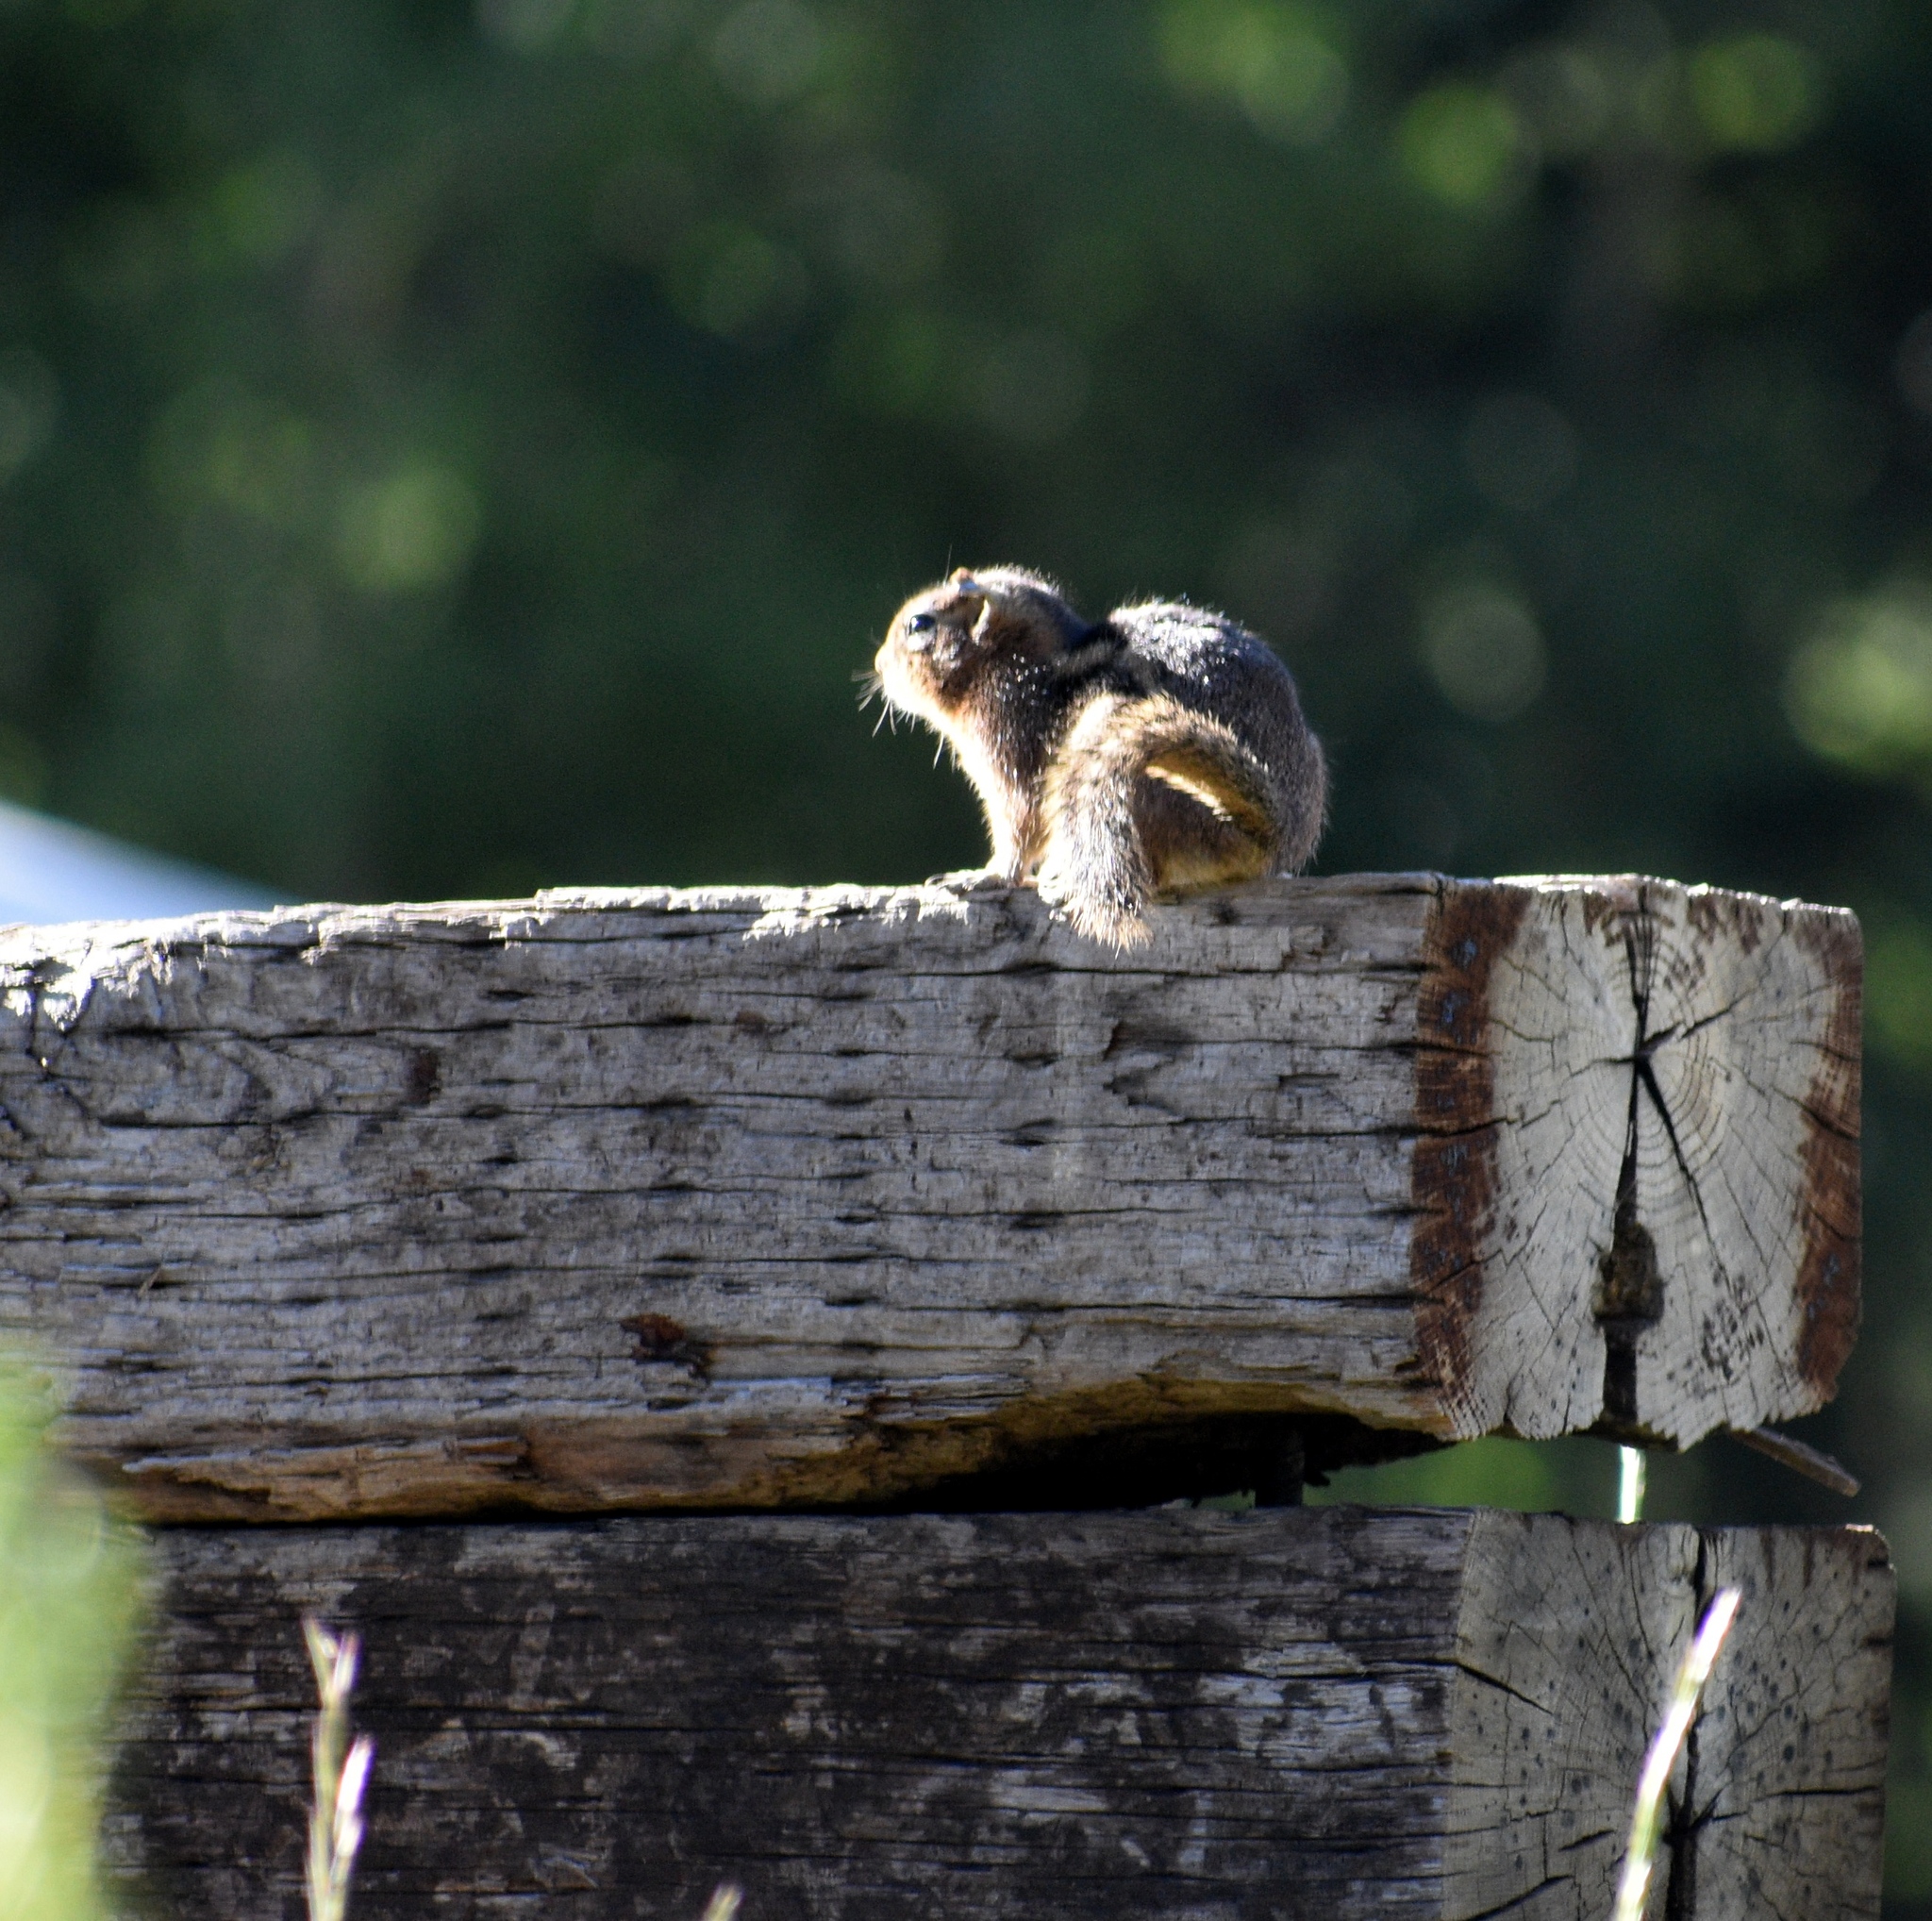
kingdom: Animalia
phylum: Chordata
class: Mammalia
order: Rodentia
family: Sciuridae
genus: Callospermophilus
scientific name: Callospermophilus lateralis
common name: Golden-mantled ground squirrel
